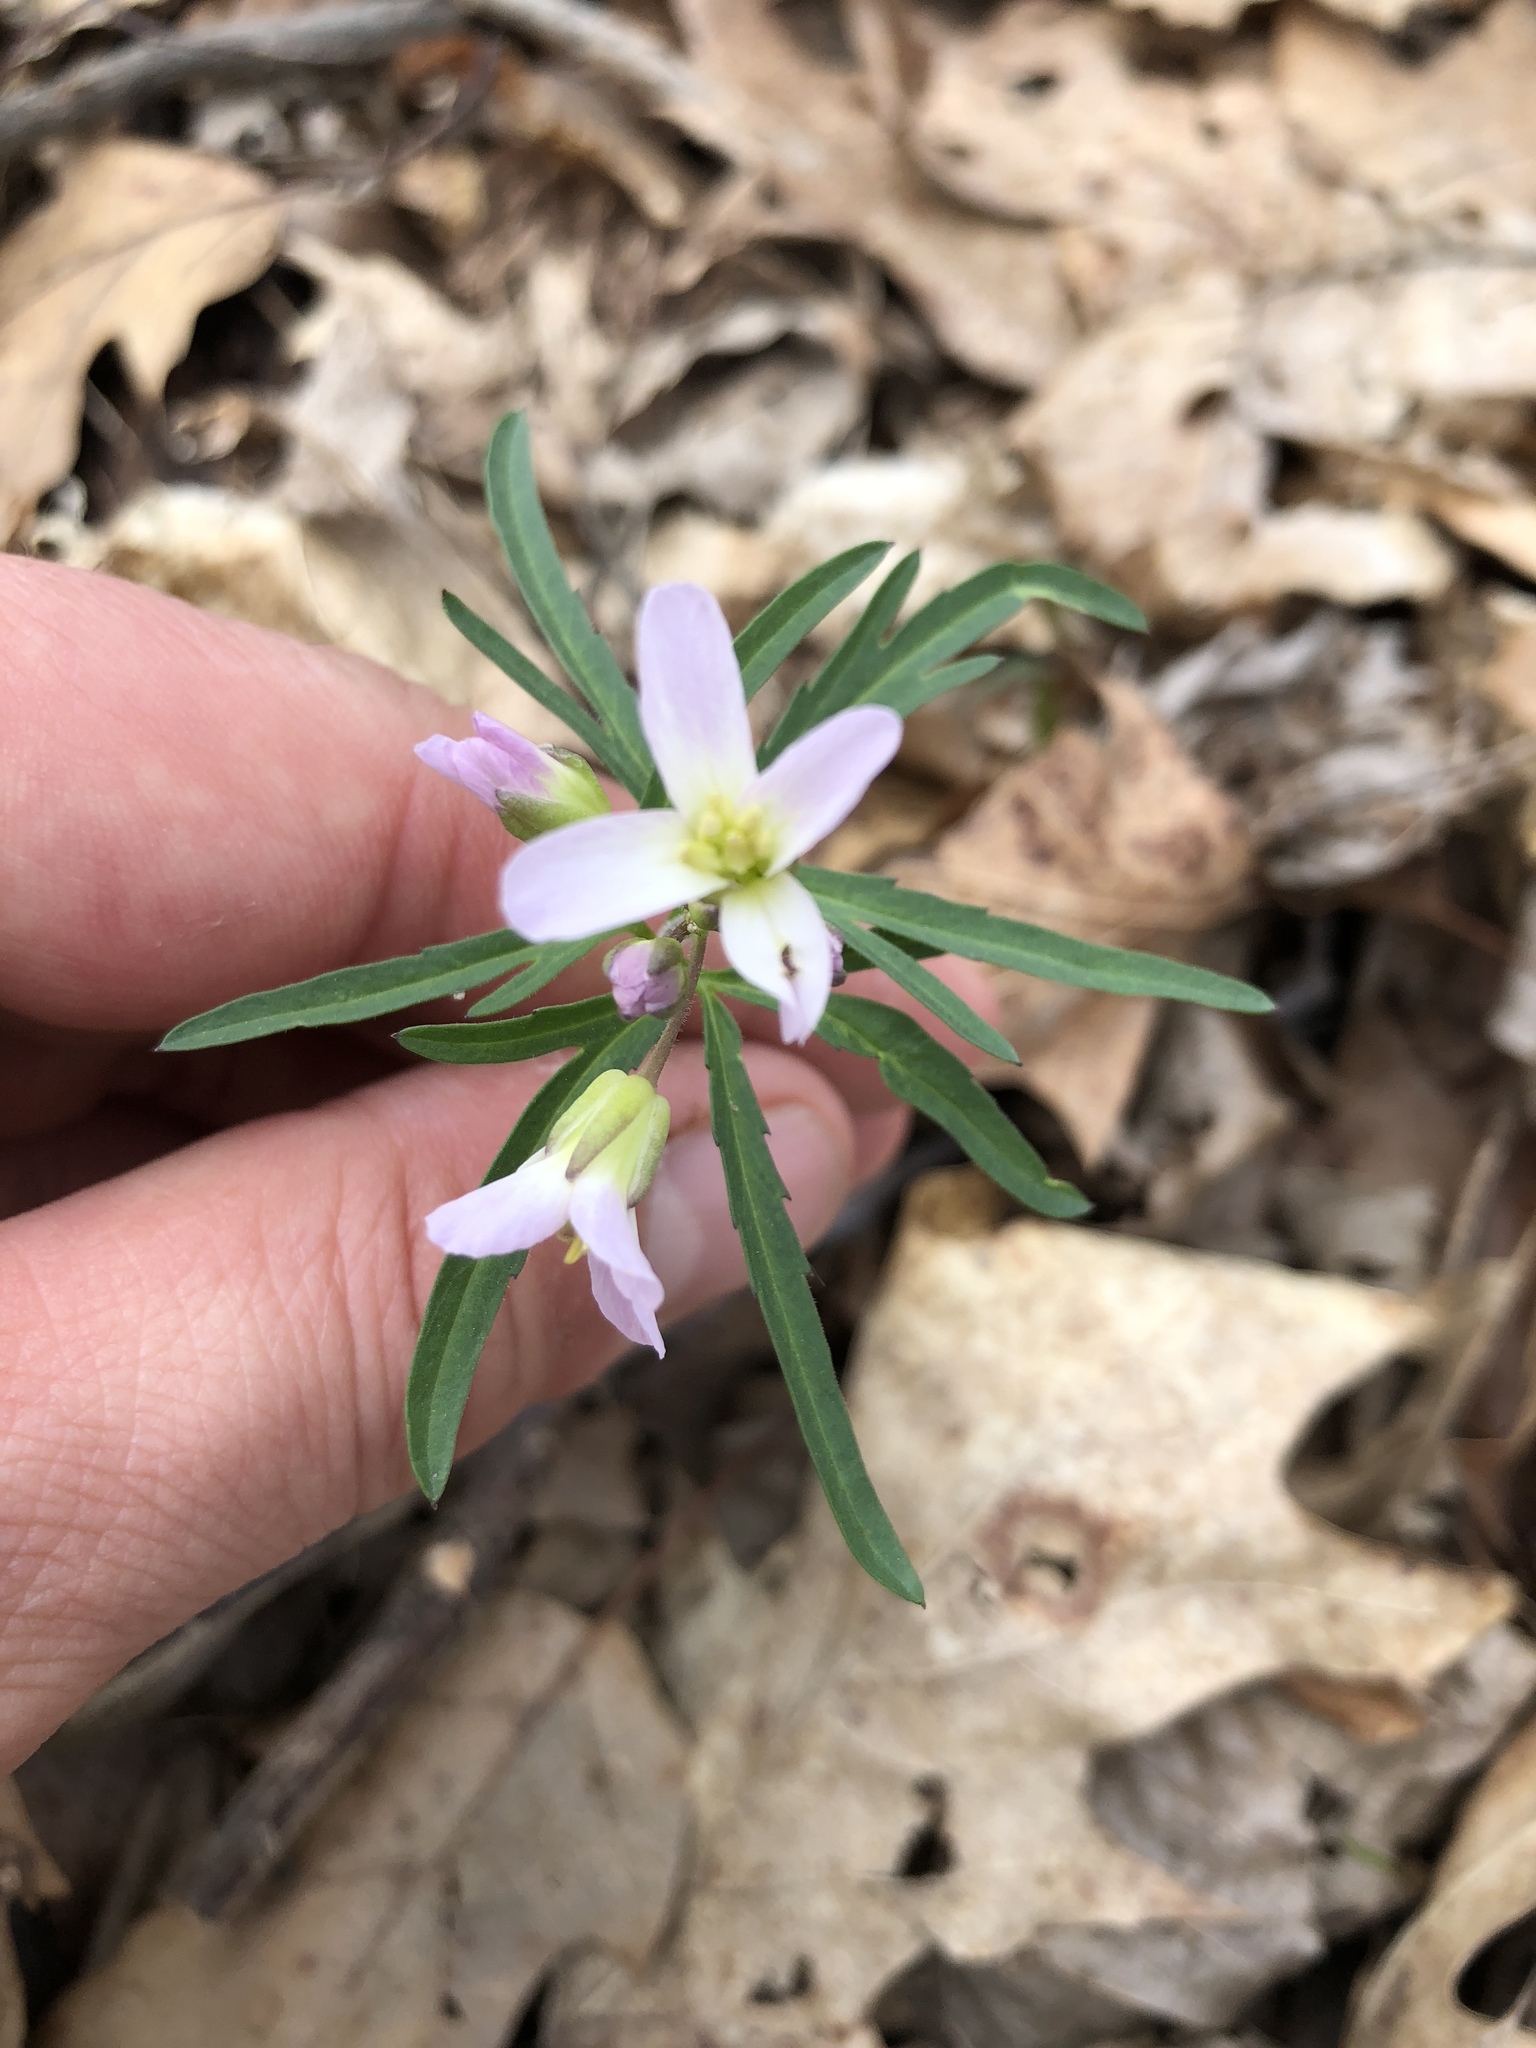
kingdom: Plantae
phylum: Tracheophyta
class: Magnoliopsida
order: Brassicales
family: Brassicaceae
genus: Cardamine
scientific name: Cardamine concatenata
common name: Cut-leaf toothcup
